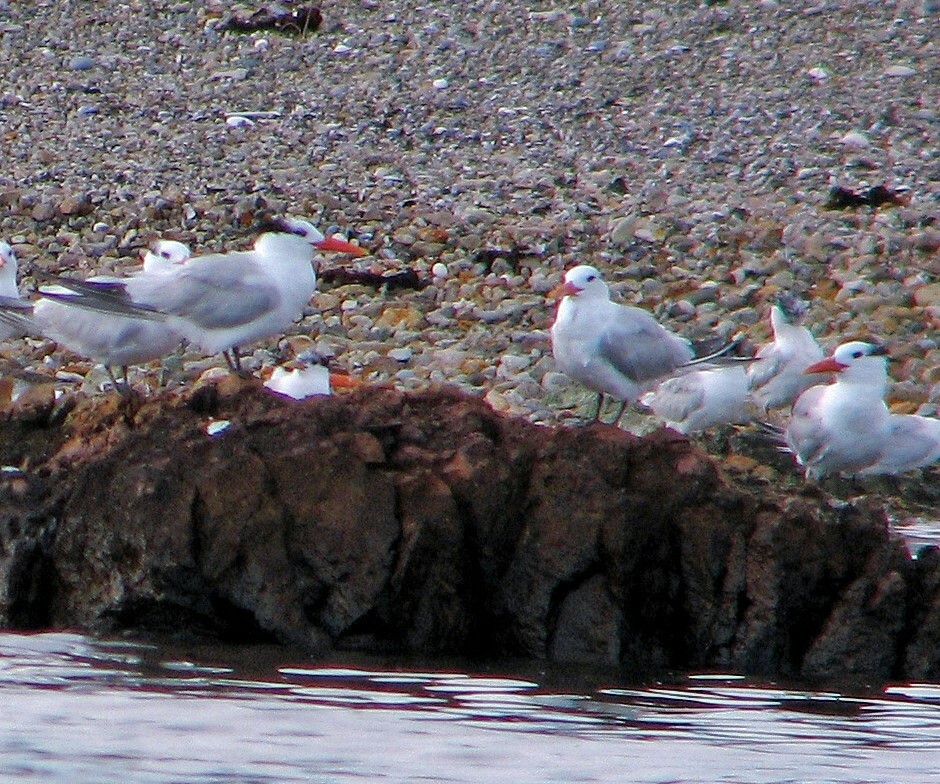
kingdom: Animalia
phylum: Chordata
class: Aves
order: Charadriiformes
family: Laridae
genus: Thalasseus
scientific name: Thalasseus maximus
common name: Royal tern
